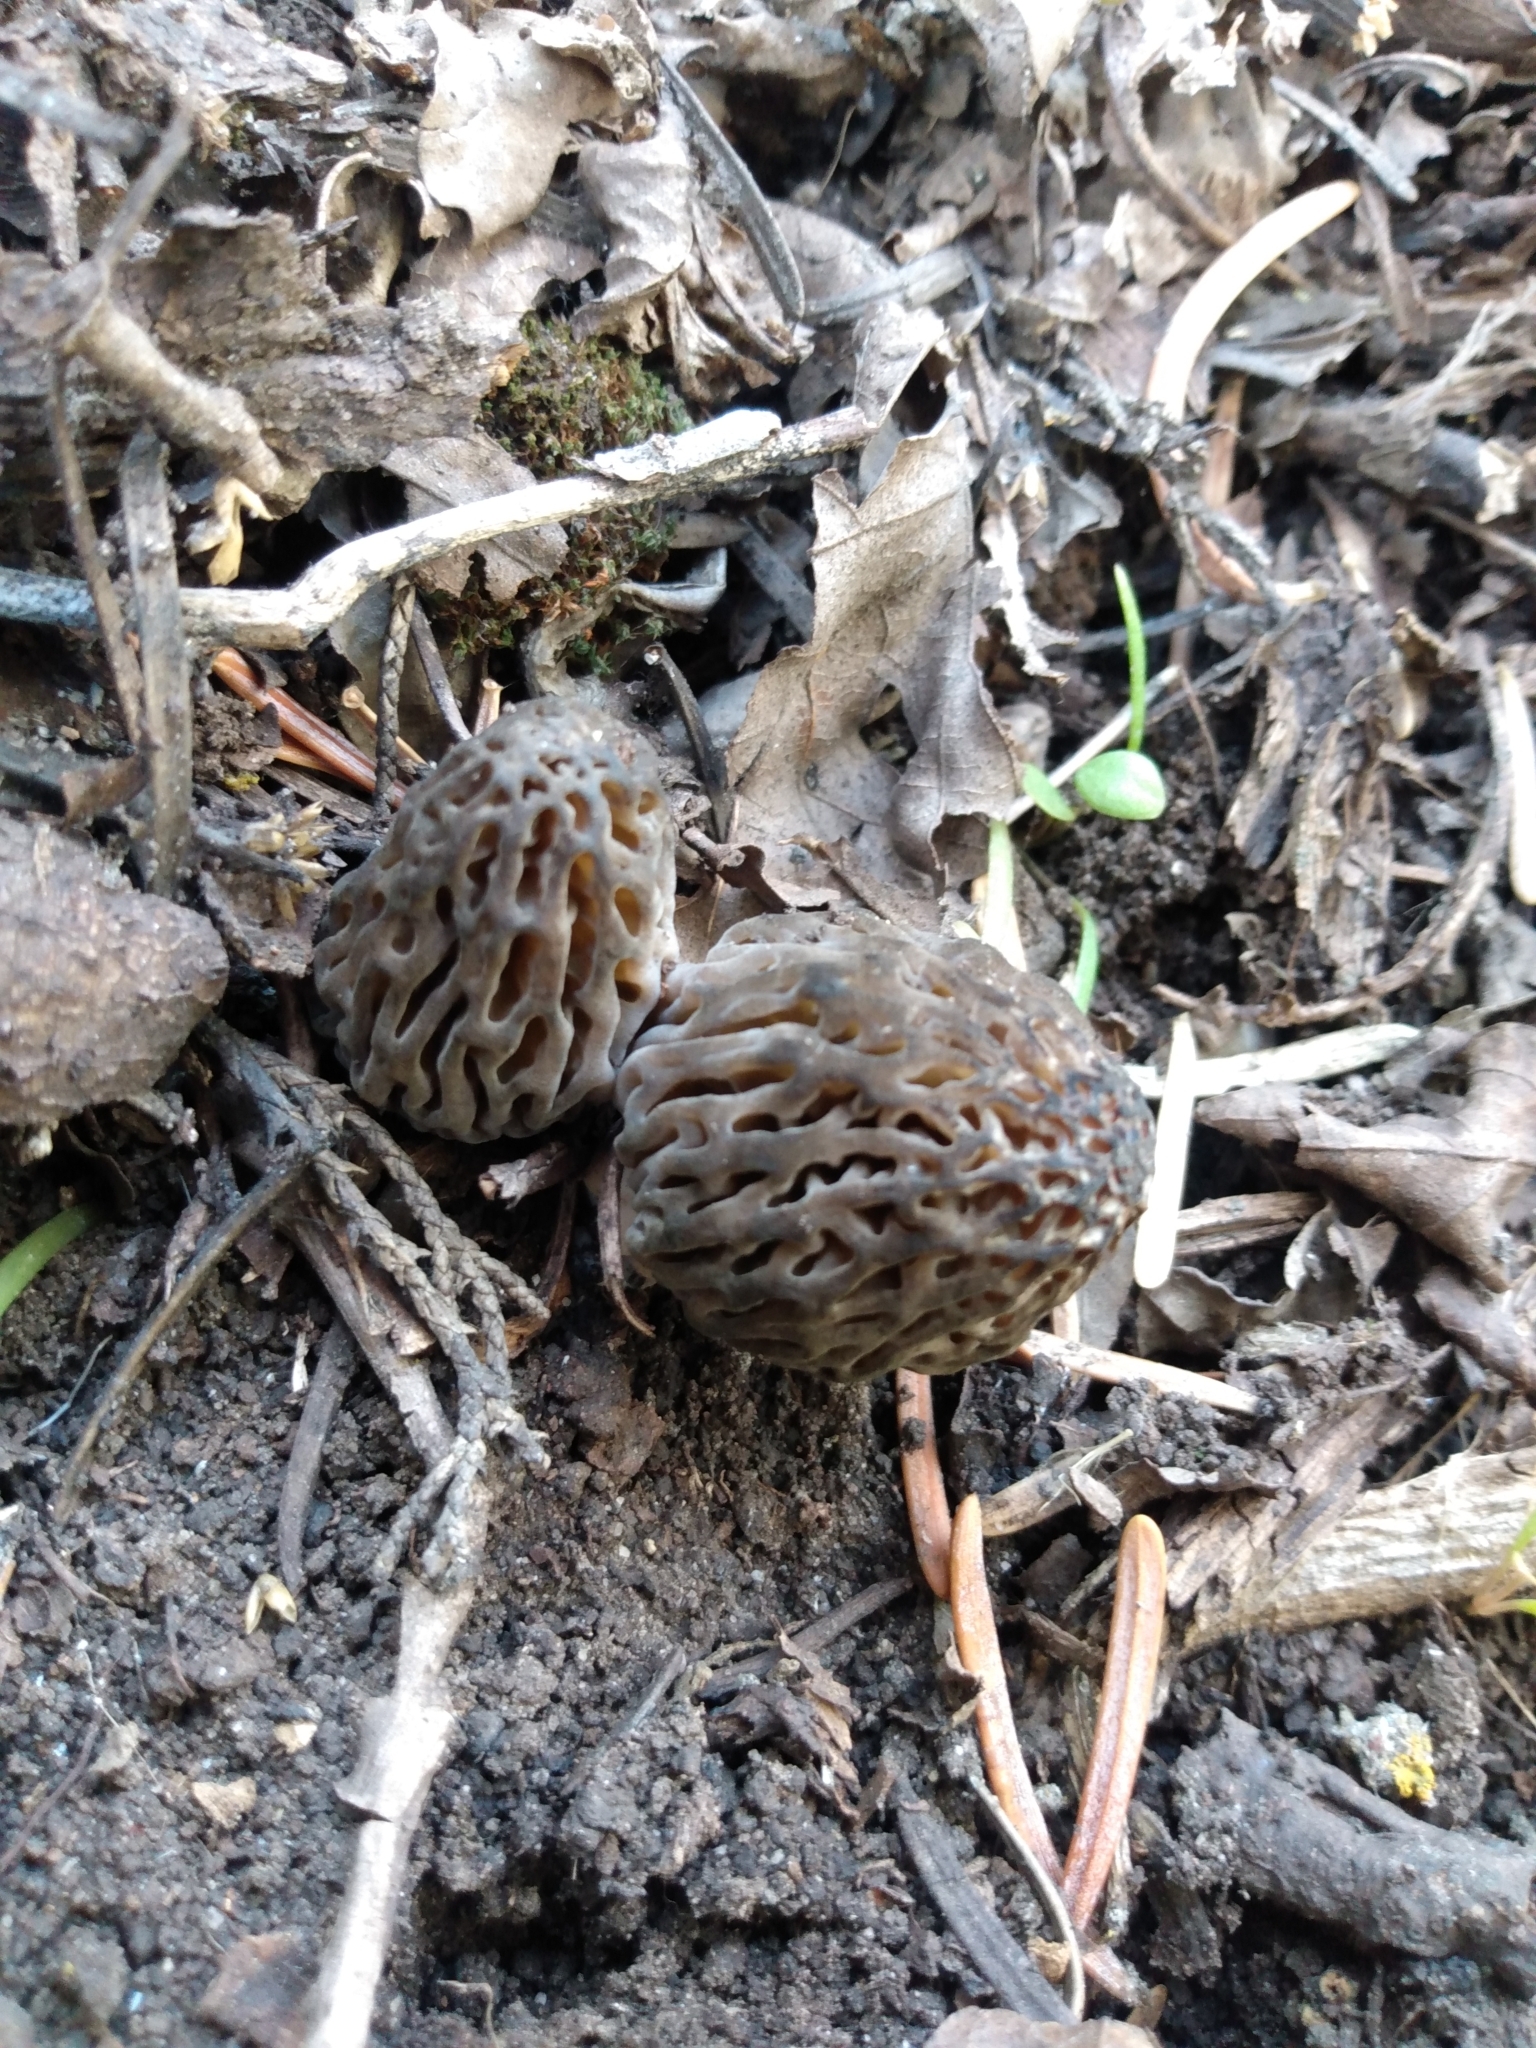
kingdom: Fungi
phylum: Ascomycota
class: Pezizomycetes
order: Pezizales
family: Morchellaceae
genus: Morchella
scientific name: Morchella snyderi
